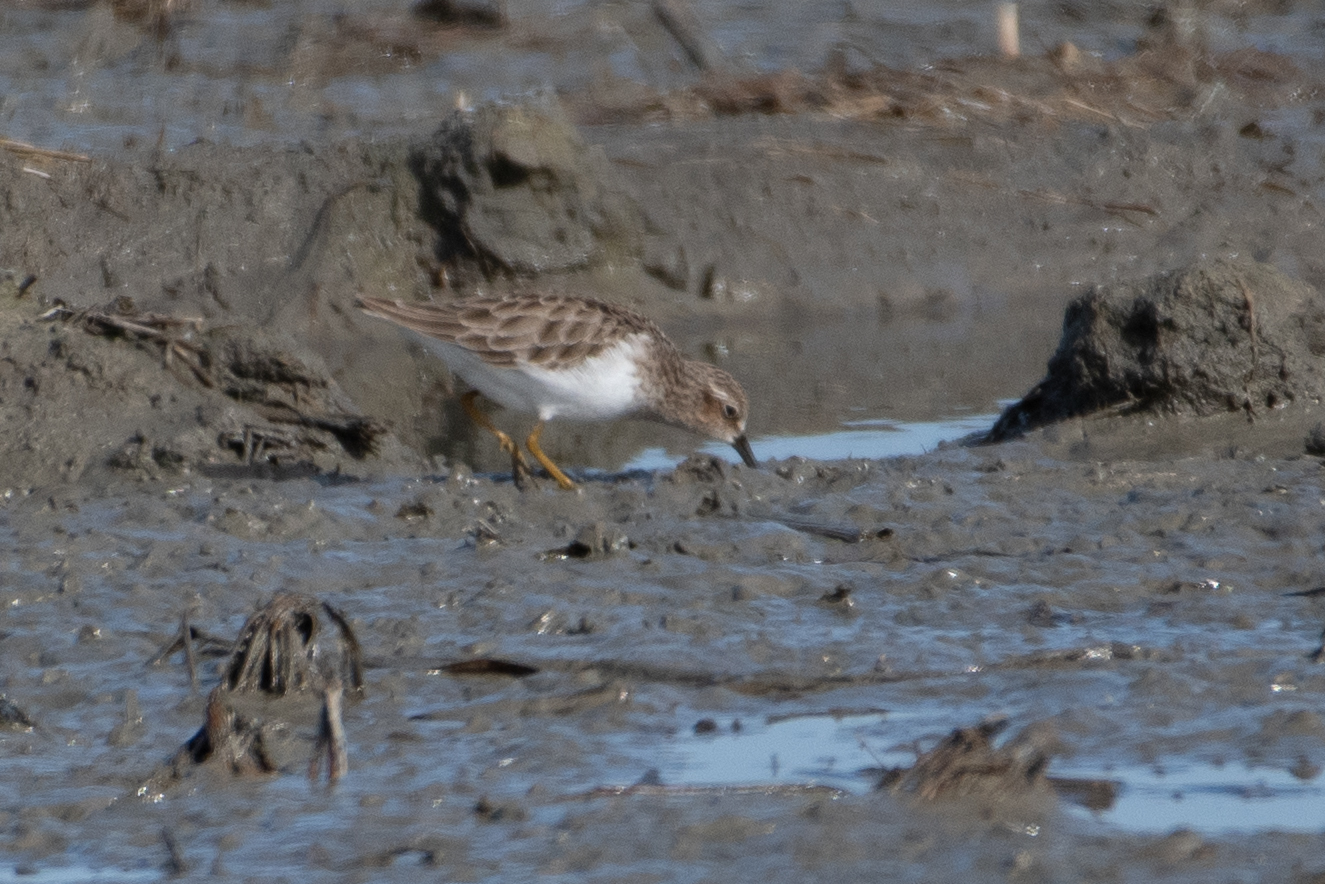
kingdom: Animalia
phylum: Chordata
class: Aves
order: Charadriiformes
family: Scolopacidae
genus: Calidris
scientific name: Calidris minutilla
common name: Least sandpiper
